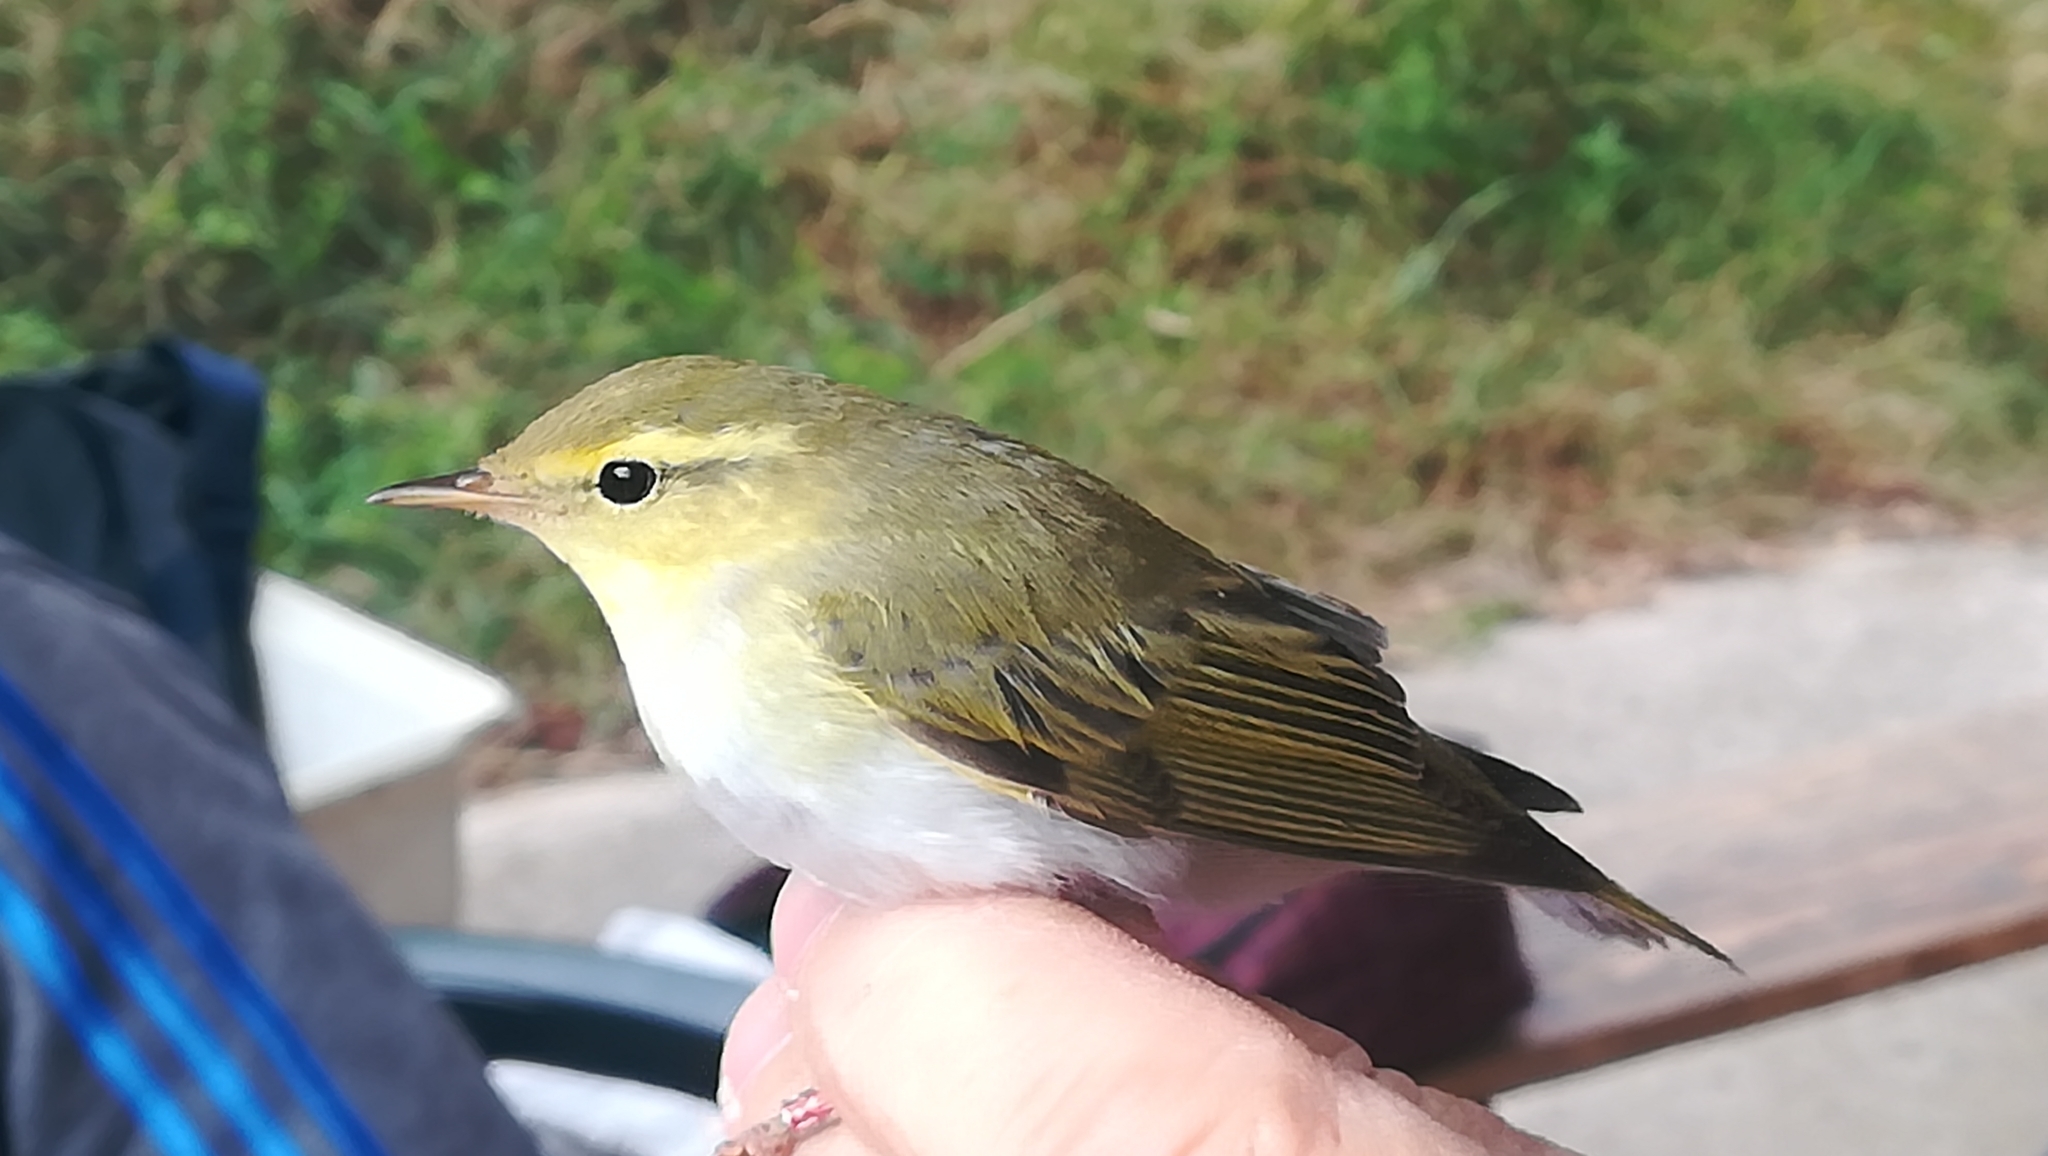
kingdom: Animalia
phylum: Chordata
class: Aves
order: Passeriformes
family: Phylloscopidae
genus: Phylloscopus
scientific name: Phylloscopus collybita
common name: Common chiffchaff
